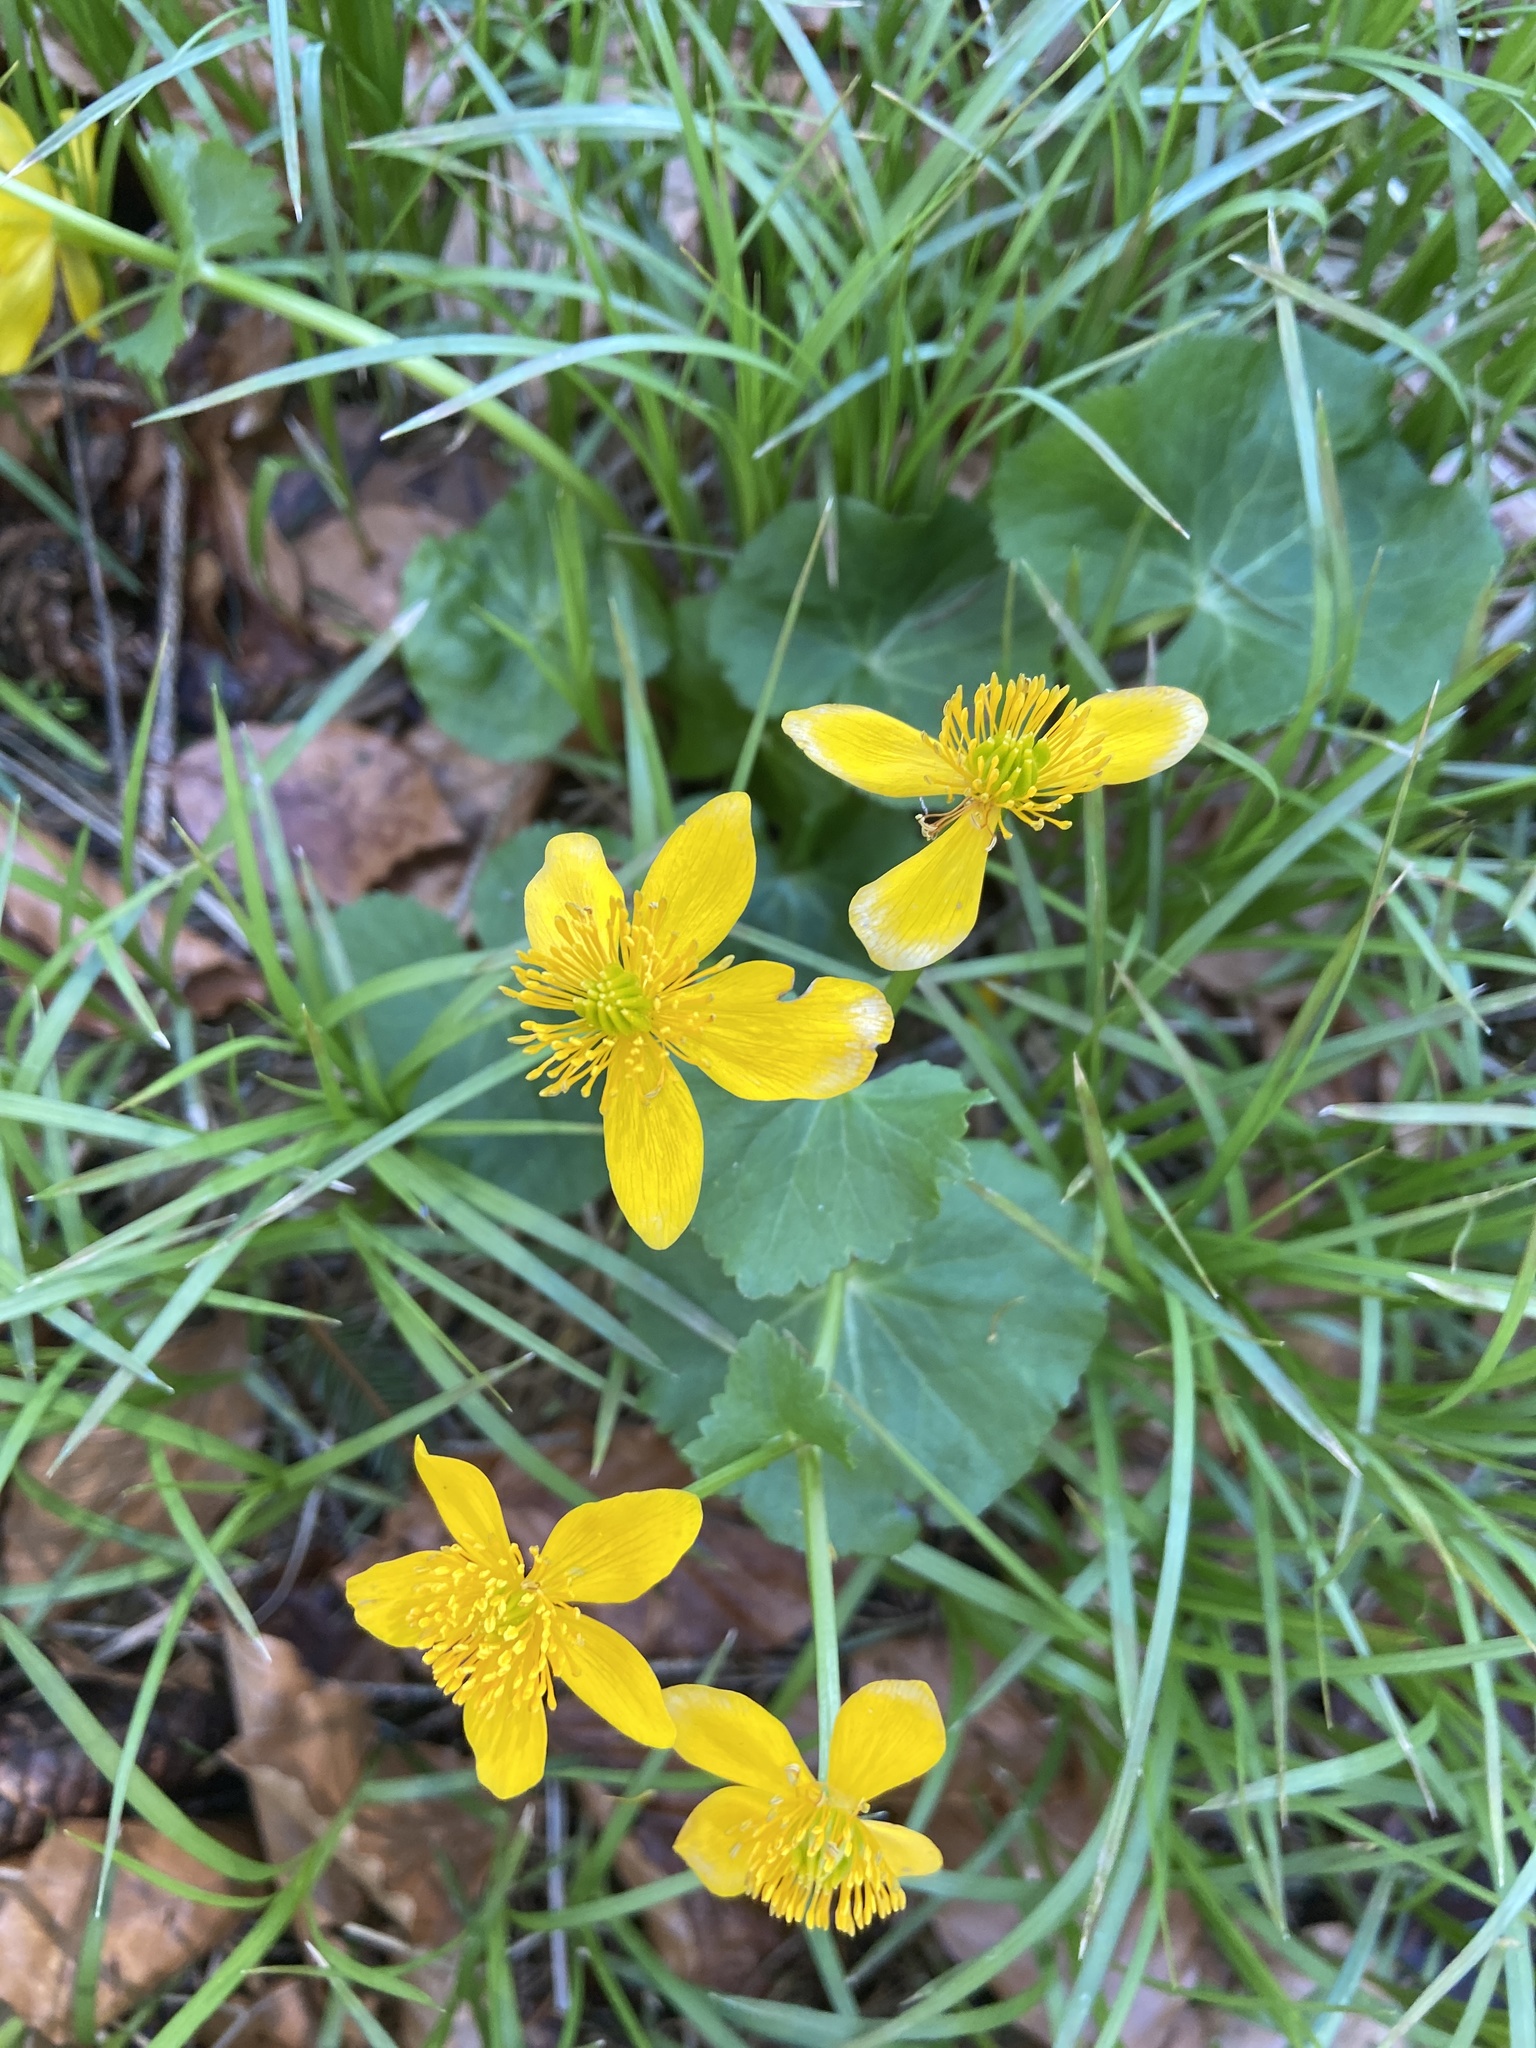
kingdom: Plantae
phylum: Tracheophyta
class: Magnoliopsida
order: Ranunculales
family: Ranunculaceae
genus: Caltha
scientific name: Caltha palustris
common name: Marsh marigold
